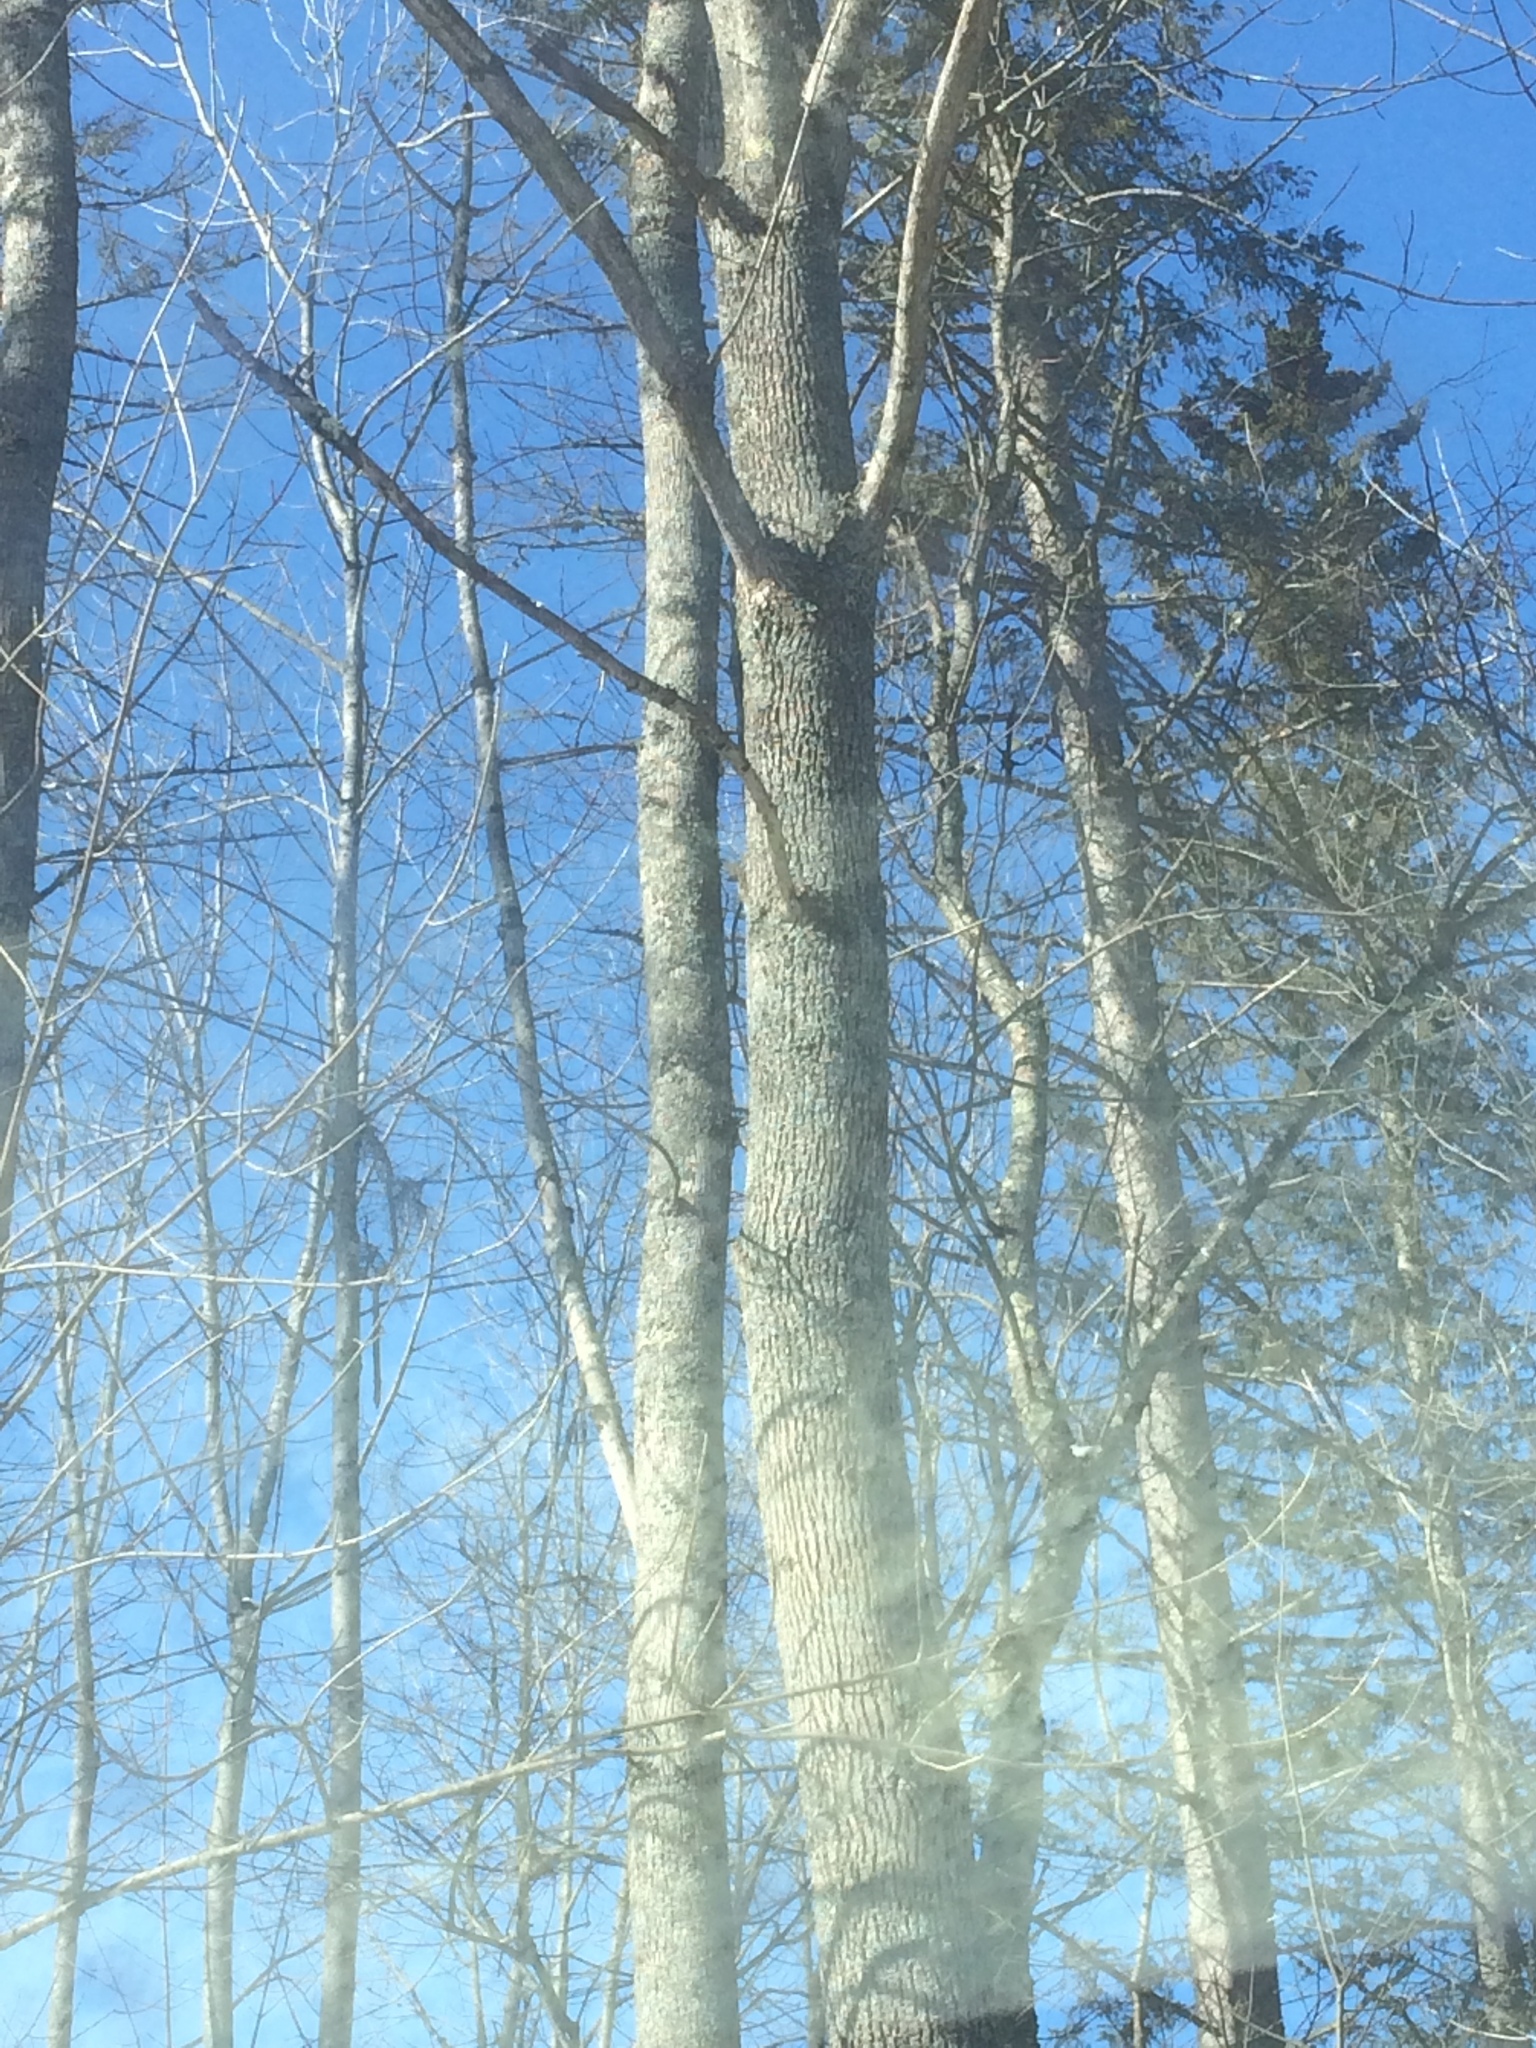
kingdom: Plantae
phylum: Tracheophyta
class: Magnoliopsida
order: Lamiales
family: Oleaceae
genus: Fraxinus
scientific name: Fraxinus americana
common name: White ash
